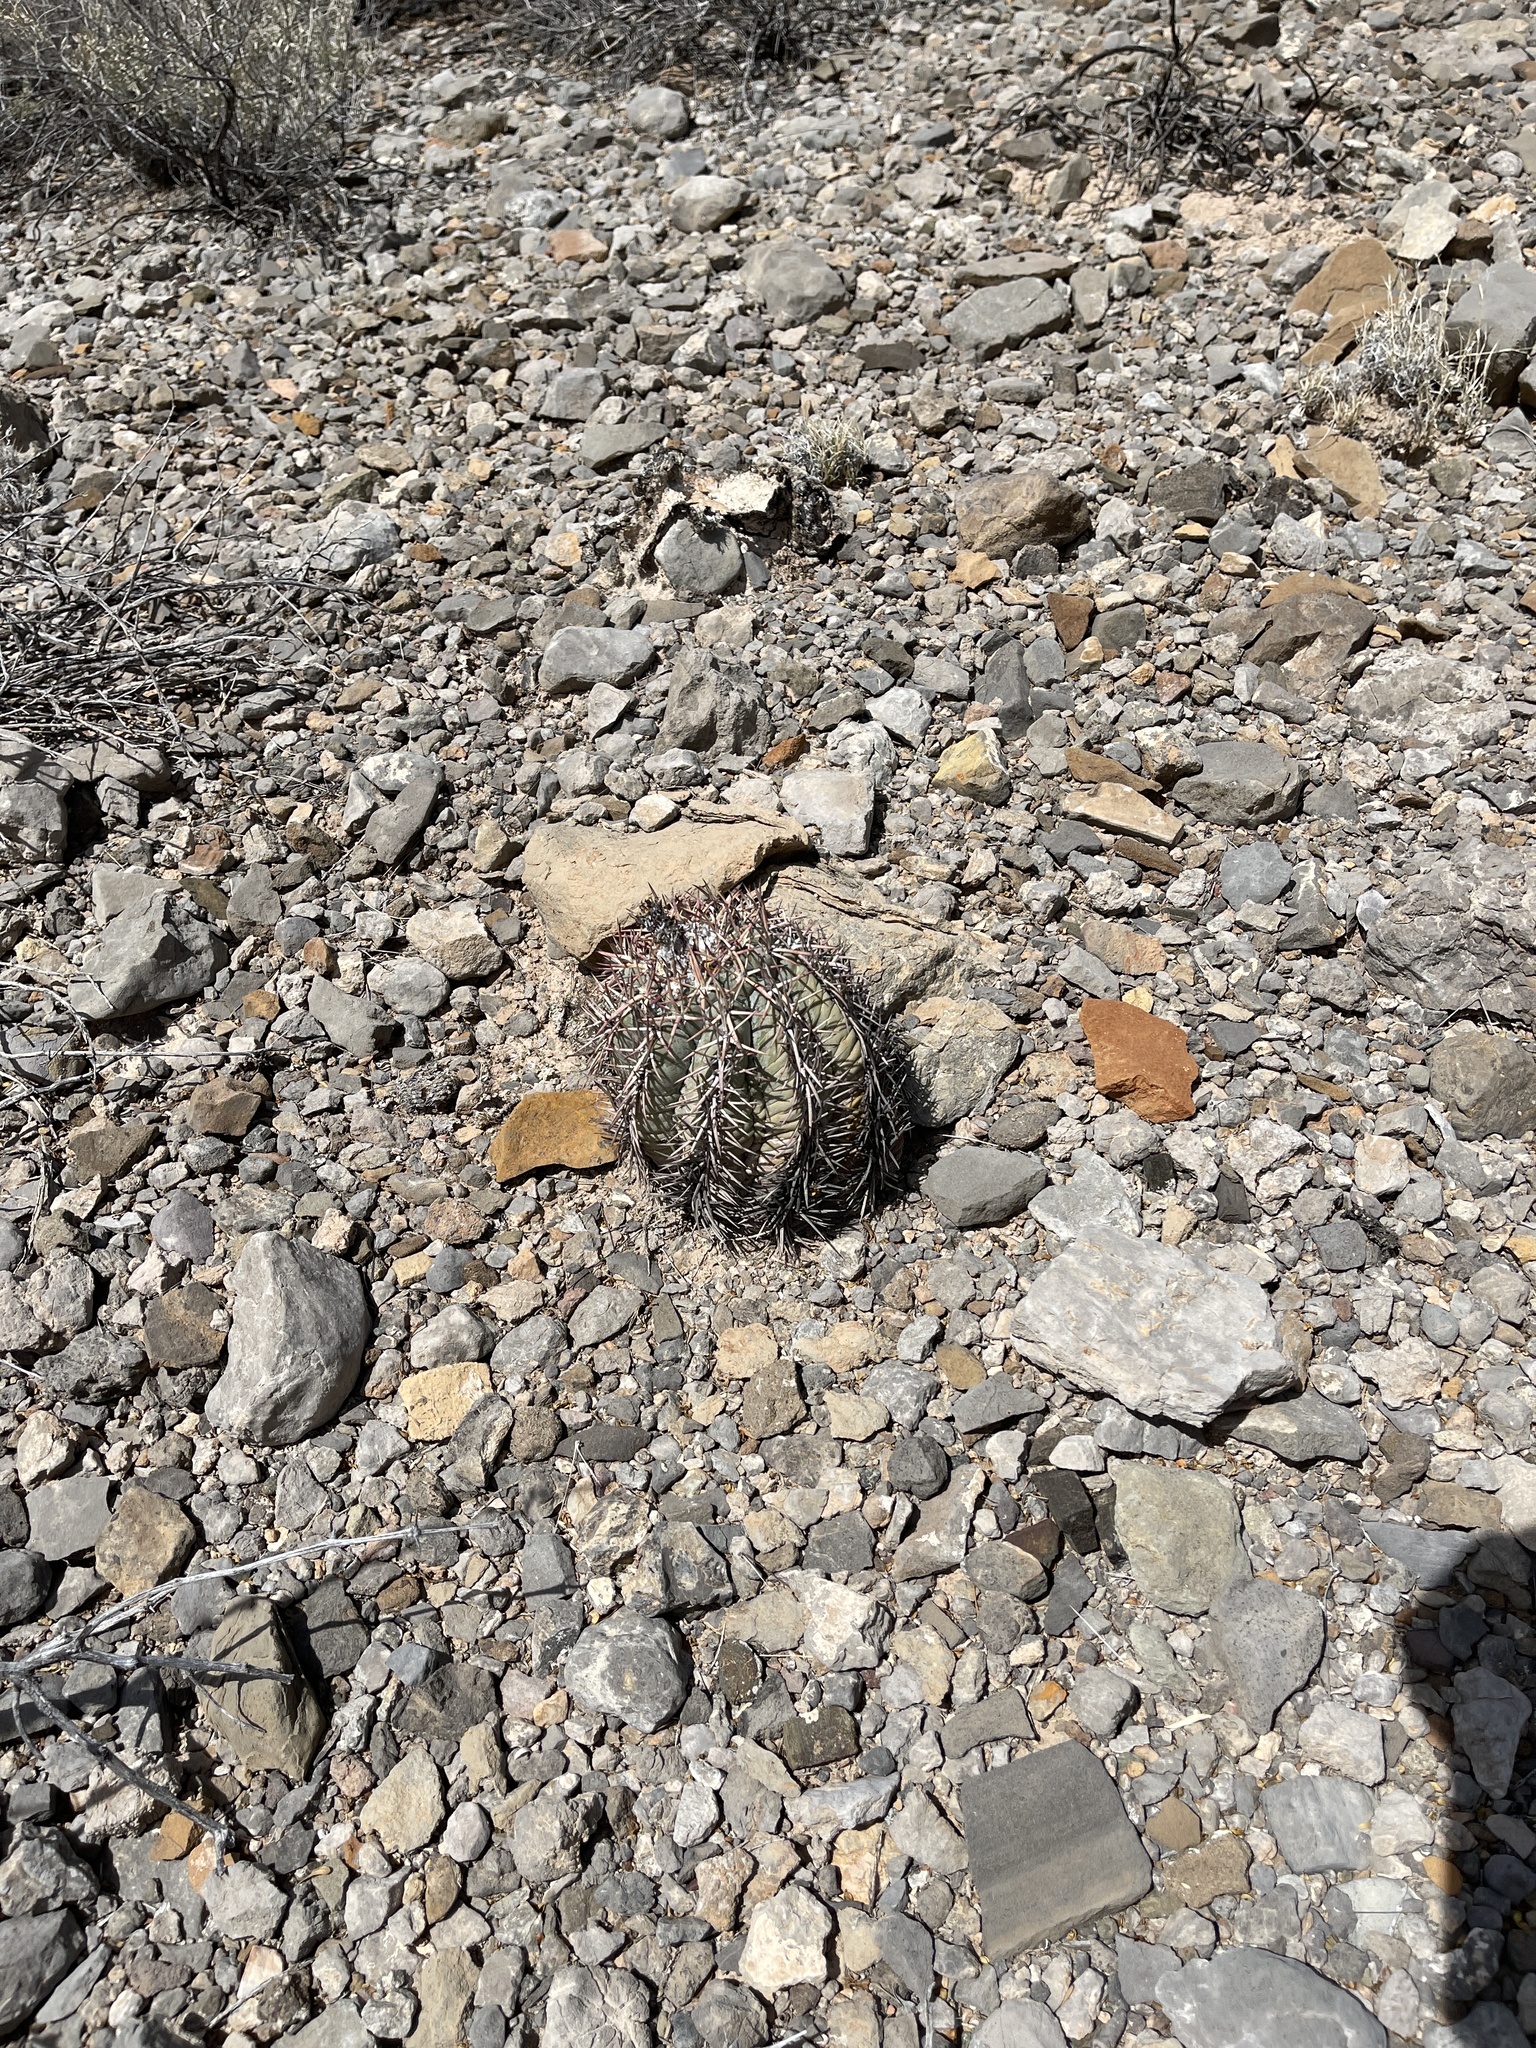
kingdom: Plantae
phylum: Tracheophyta
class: Magnoliopsida
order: Caryophyllales
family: Cactaceae
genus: Echinocactus
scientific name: Echinocactus horizonthalonius
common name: Devilshead
